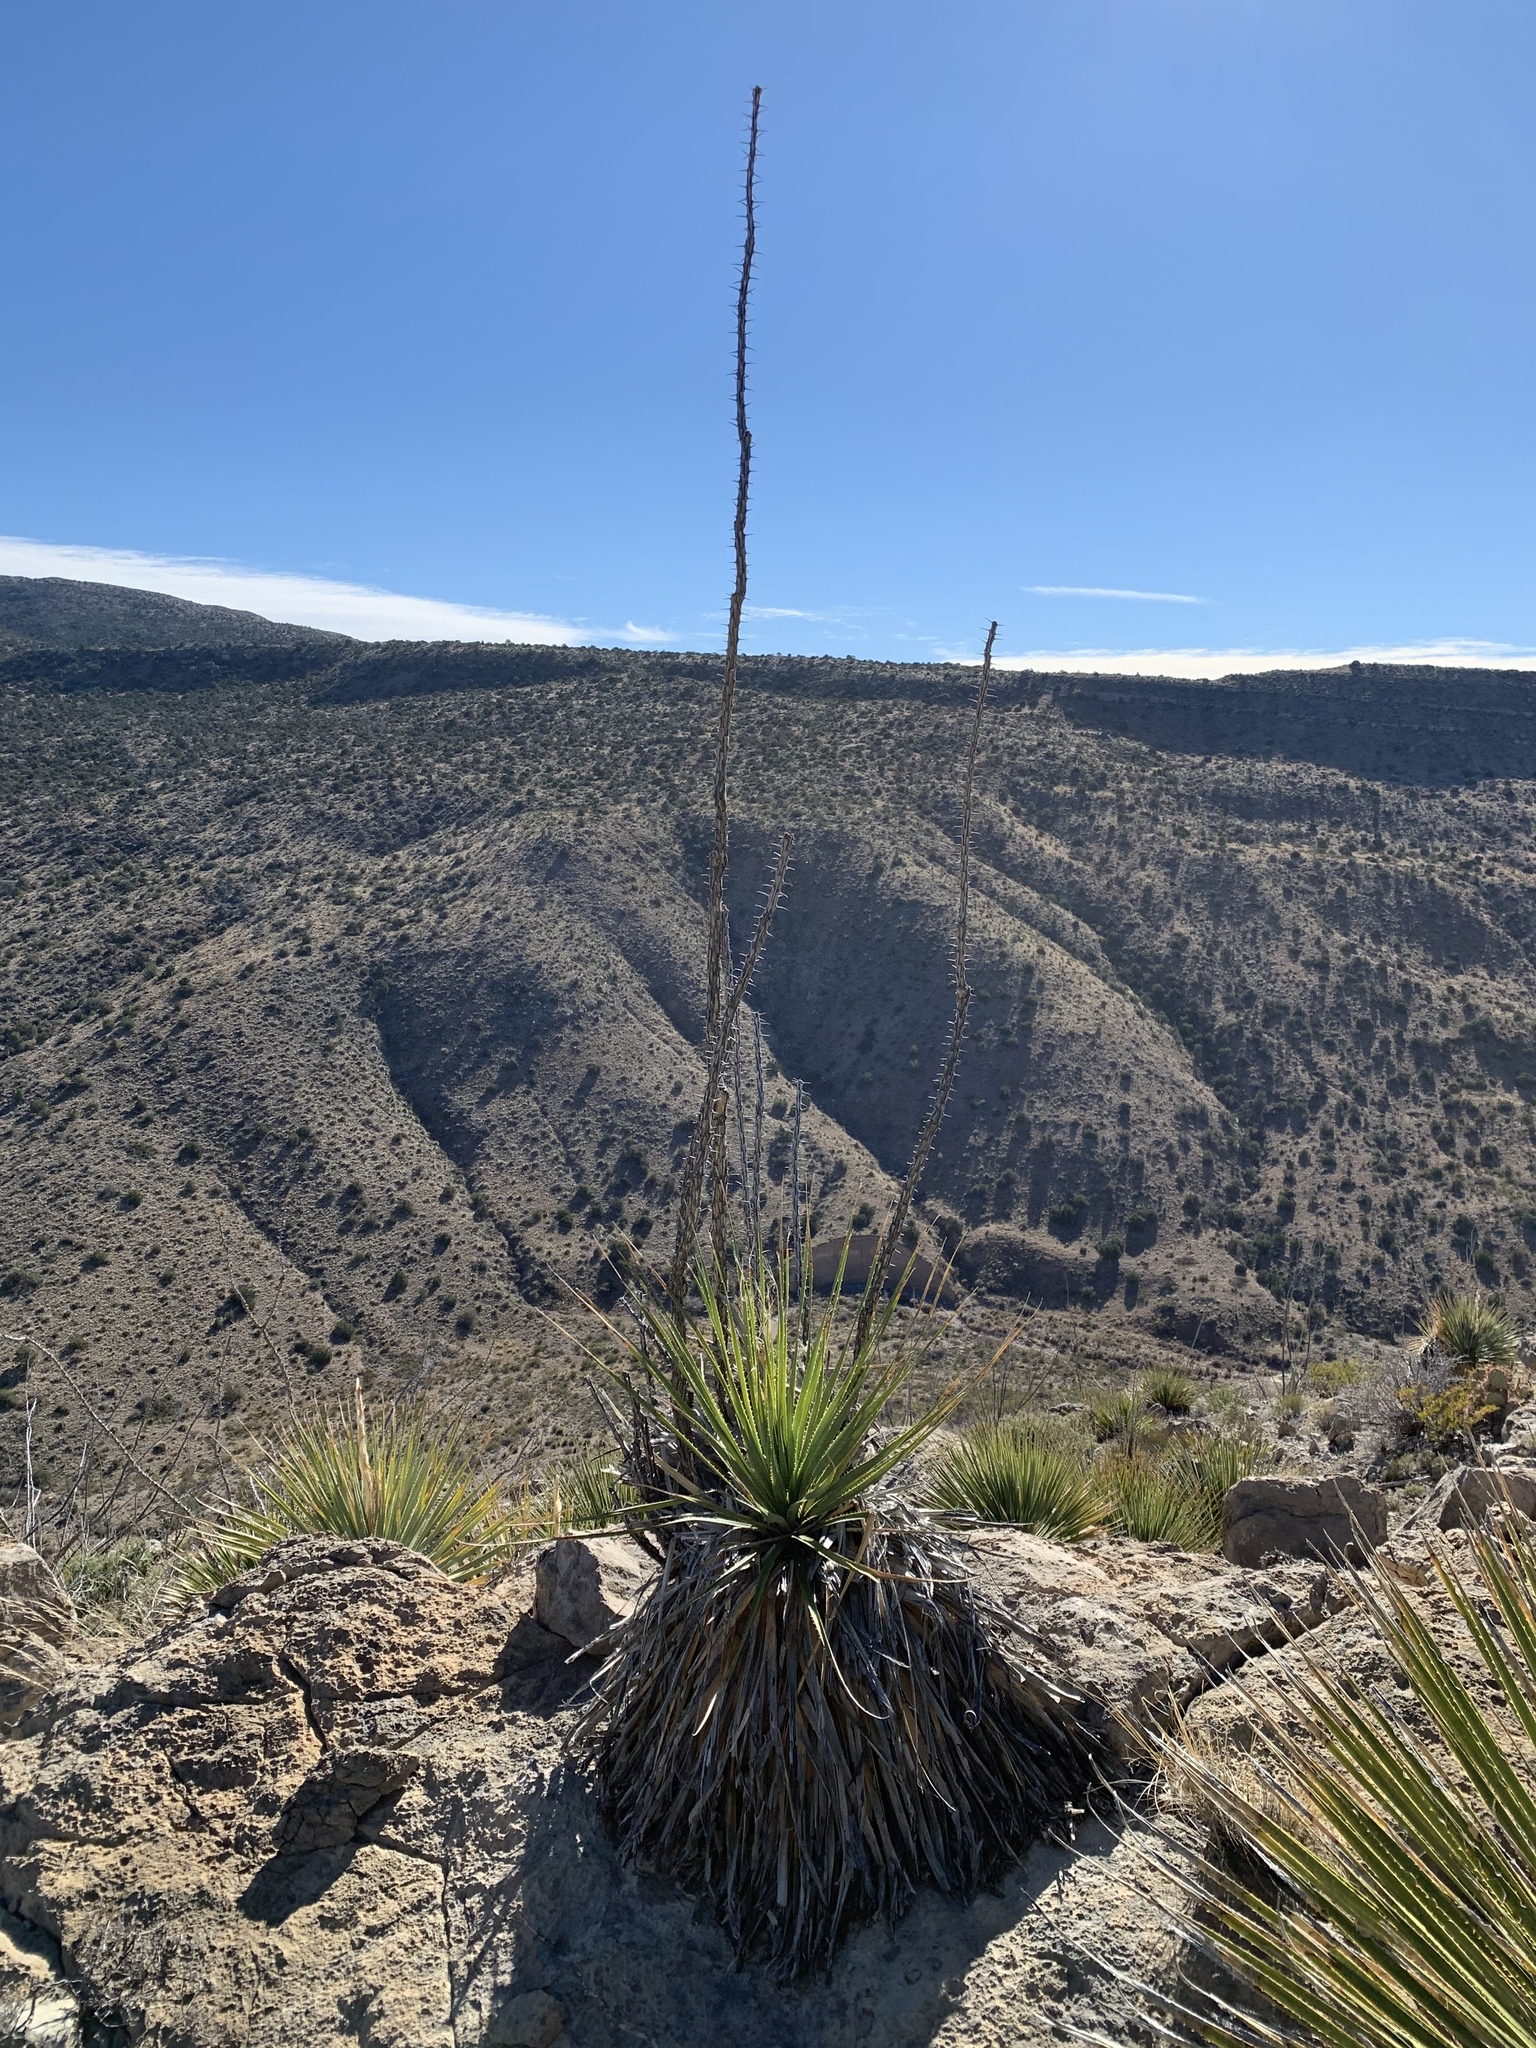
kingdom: Plantae
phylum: Tracheophyta
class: Magnoliopsida
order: Ericales
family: Fouquieriaceae
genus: Fouquieria
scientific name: Fouquieria splendens
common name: Vine-cactus
